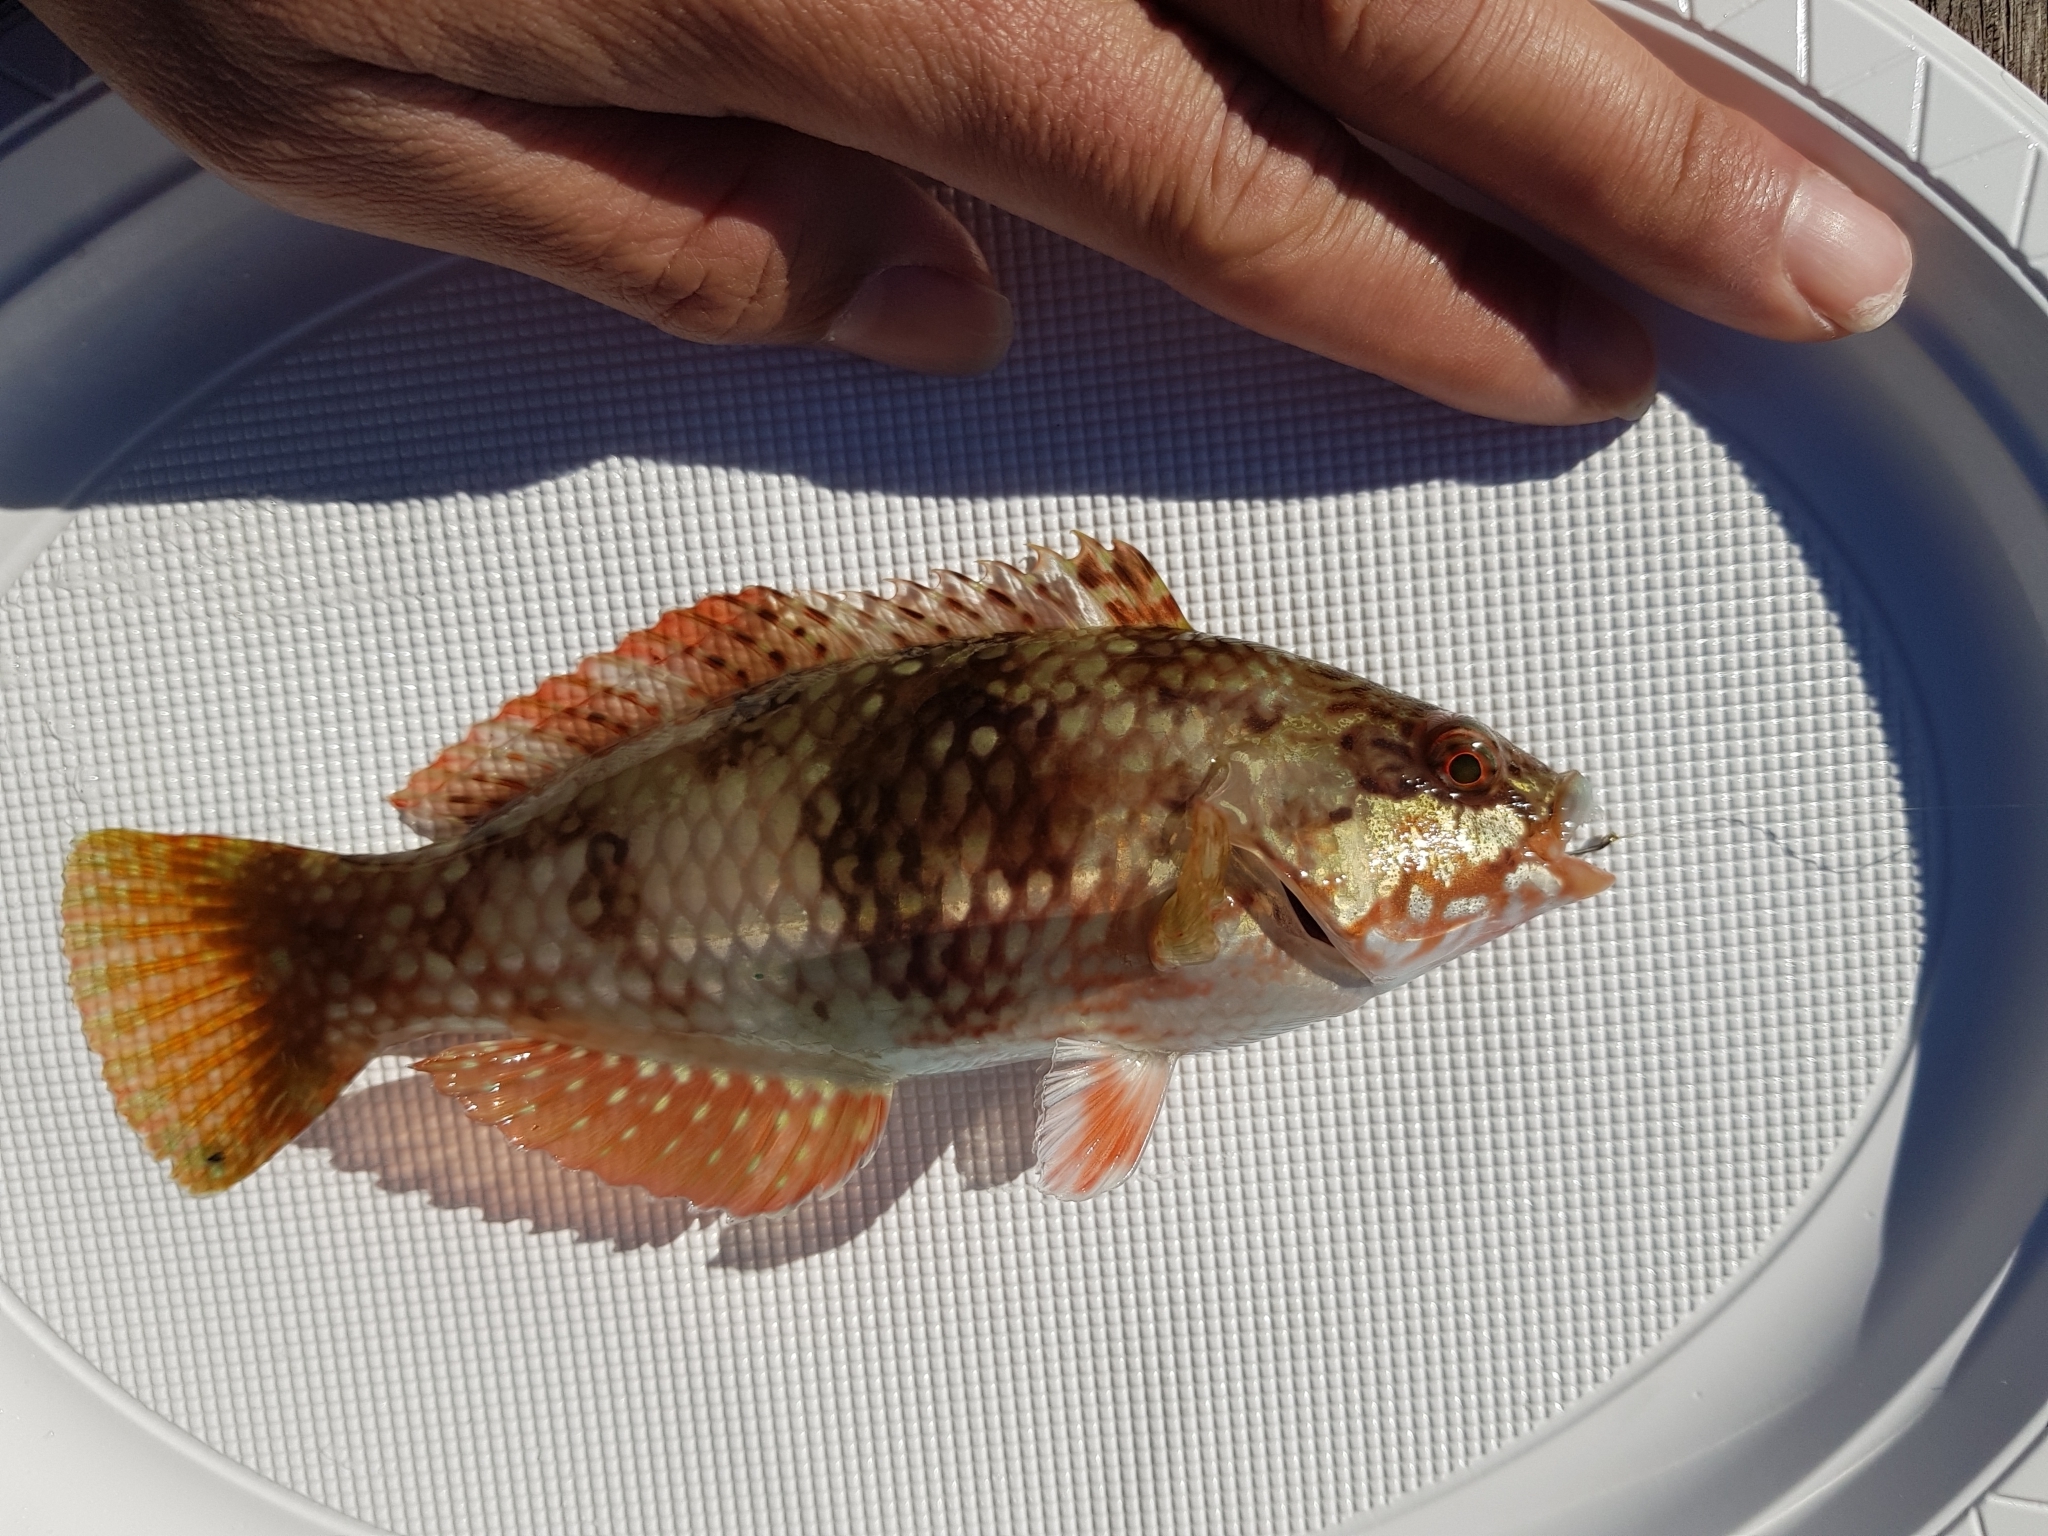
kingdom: Animalia
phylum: Chordata
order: Perciformes
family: Labridae
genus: Notolabrus
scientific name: Notolabrus tetricus
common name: Blue-throated parrotfish
